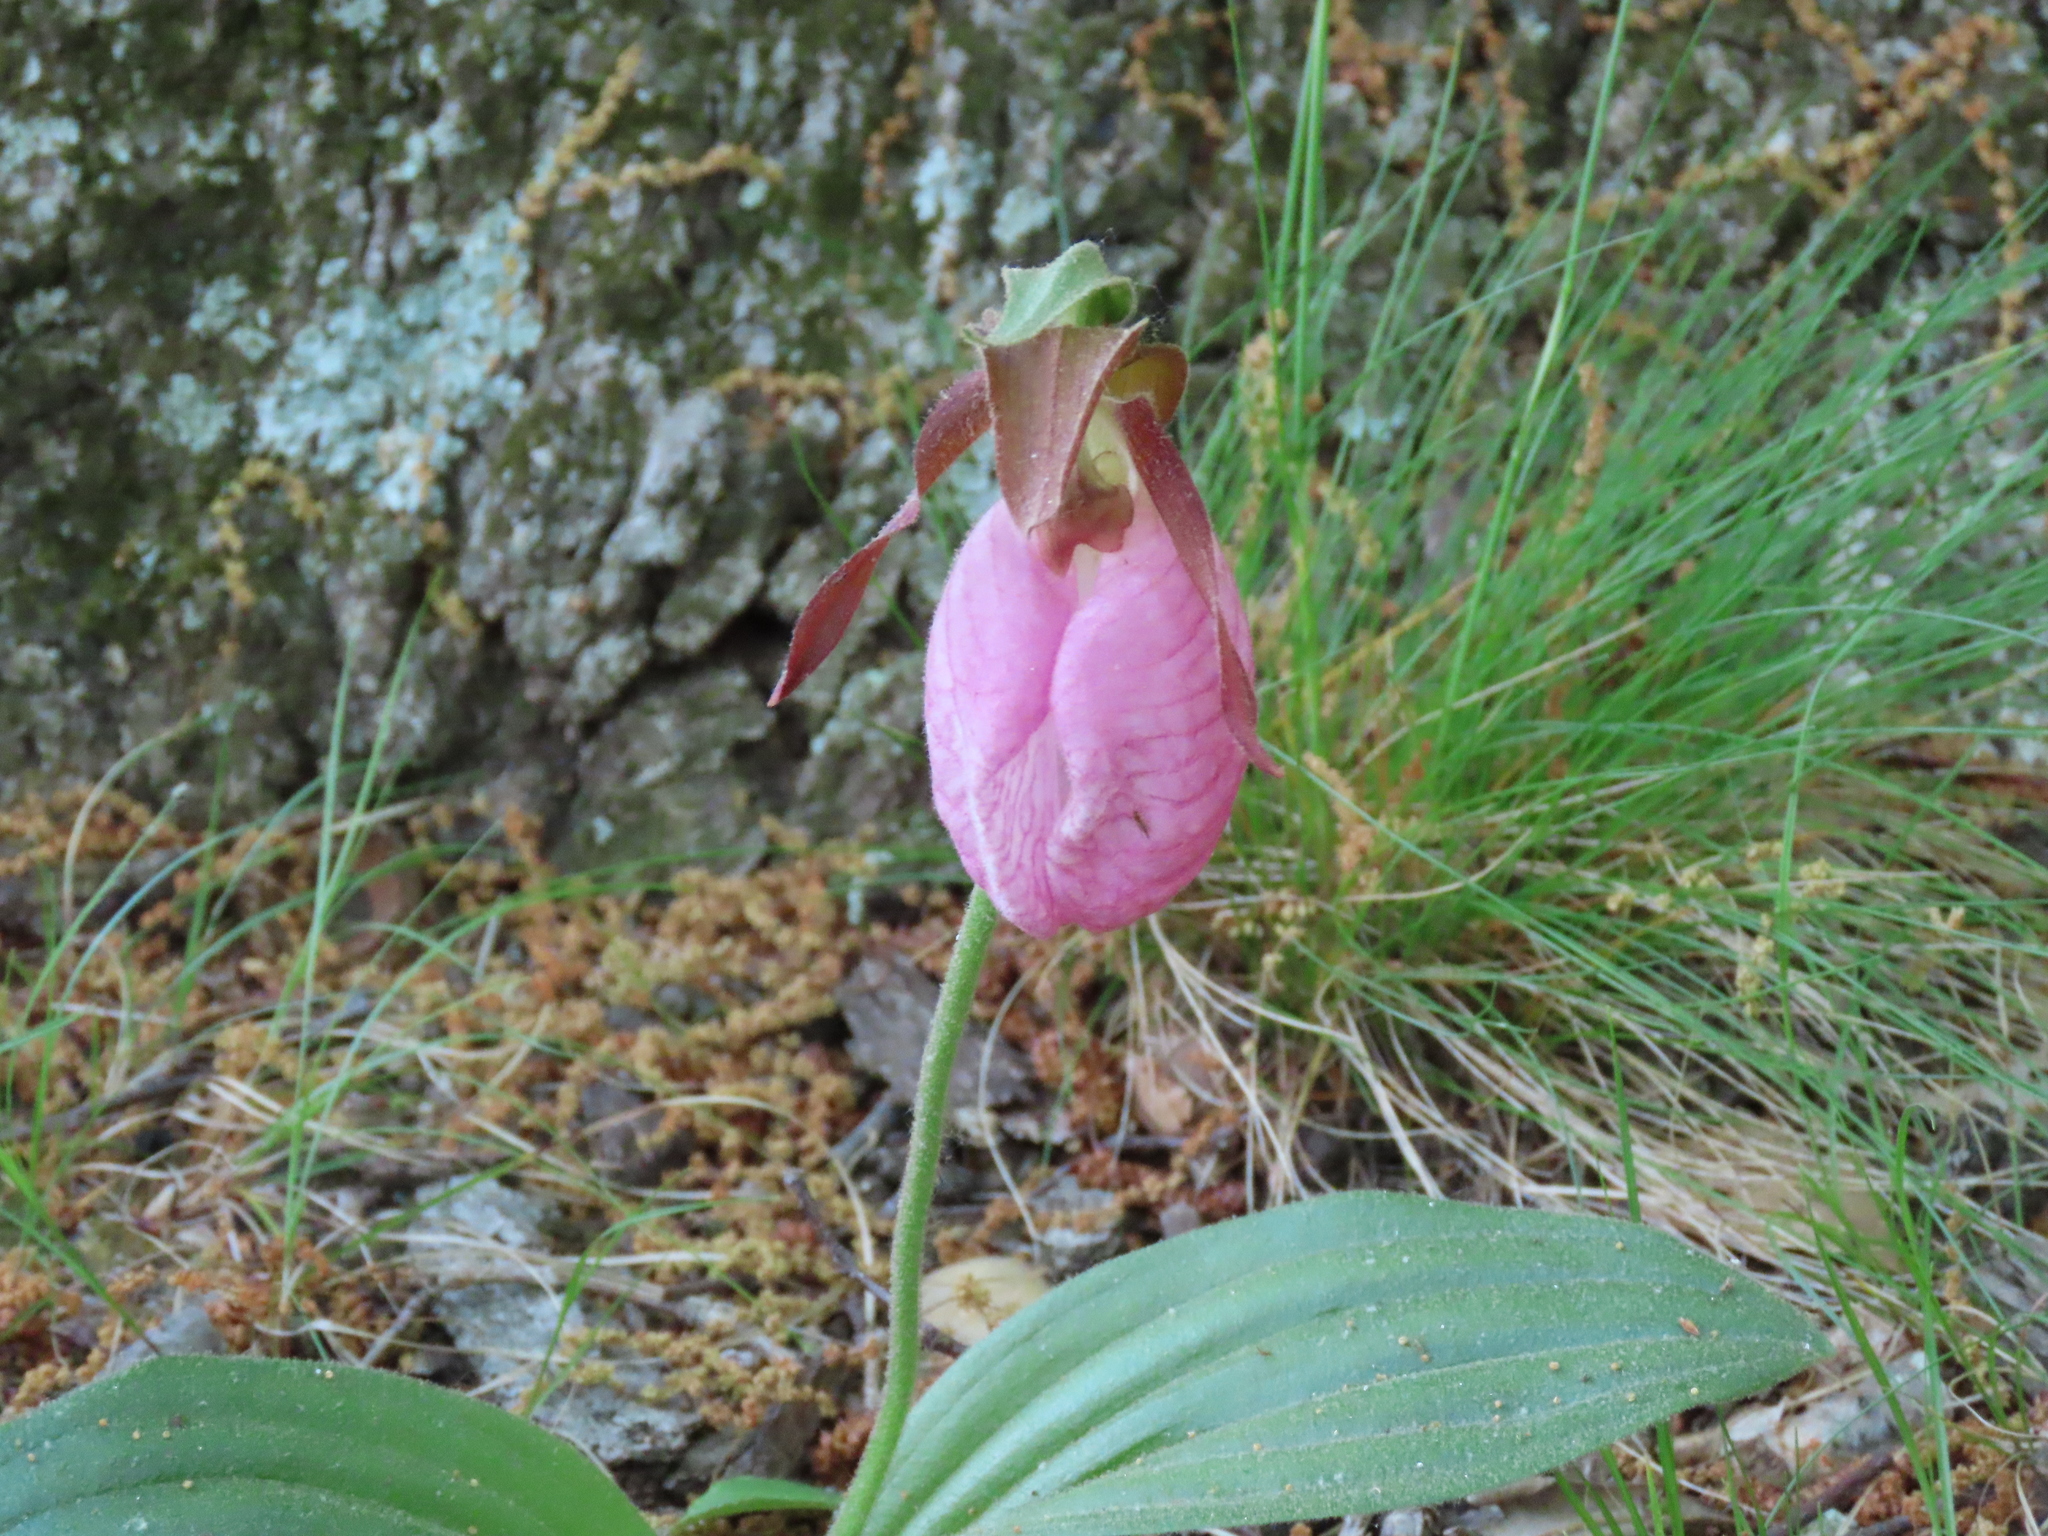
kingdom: Plantae
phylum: Tracheophyta
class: Liliopsida
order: Asparagales
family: Orchidaceae
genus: Cypripedium
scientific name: Cypripedium acaule
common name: Pink lady's-slipper
